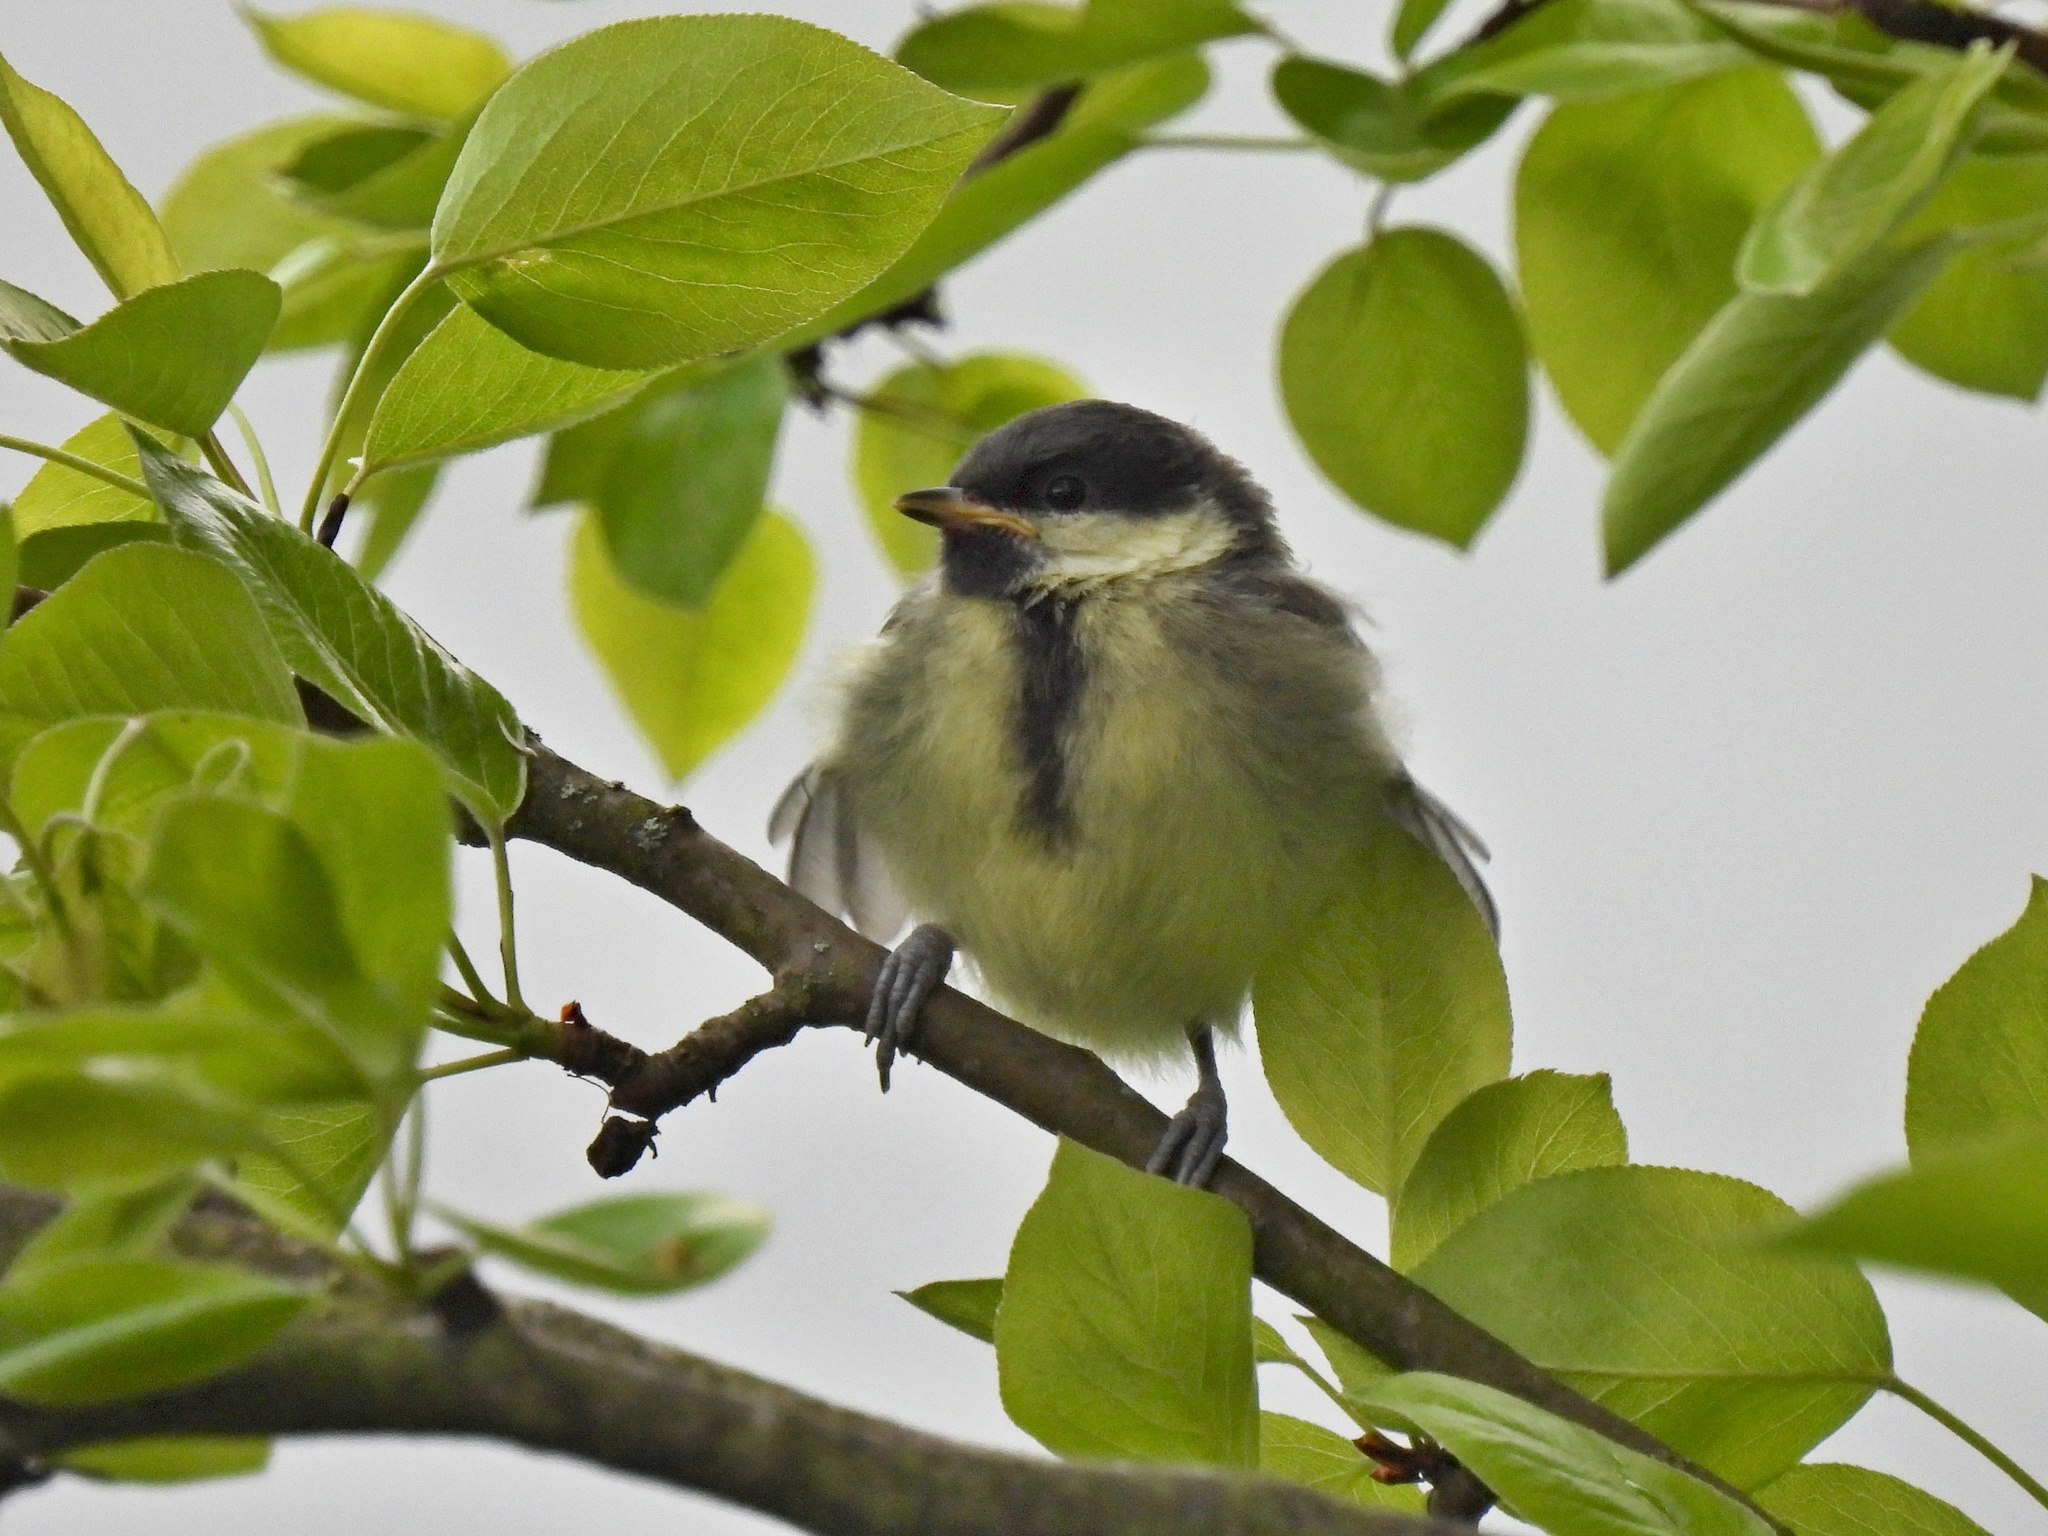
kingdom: Animalia
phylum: Chordata
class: Aves
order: Passeriformes
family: Paridae
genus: Parus
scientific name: Parus major
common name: Great tit
